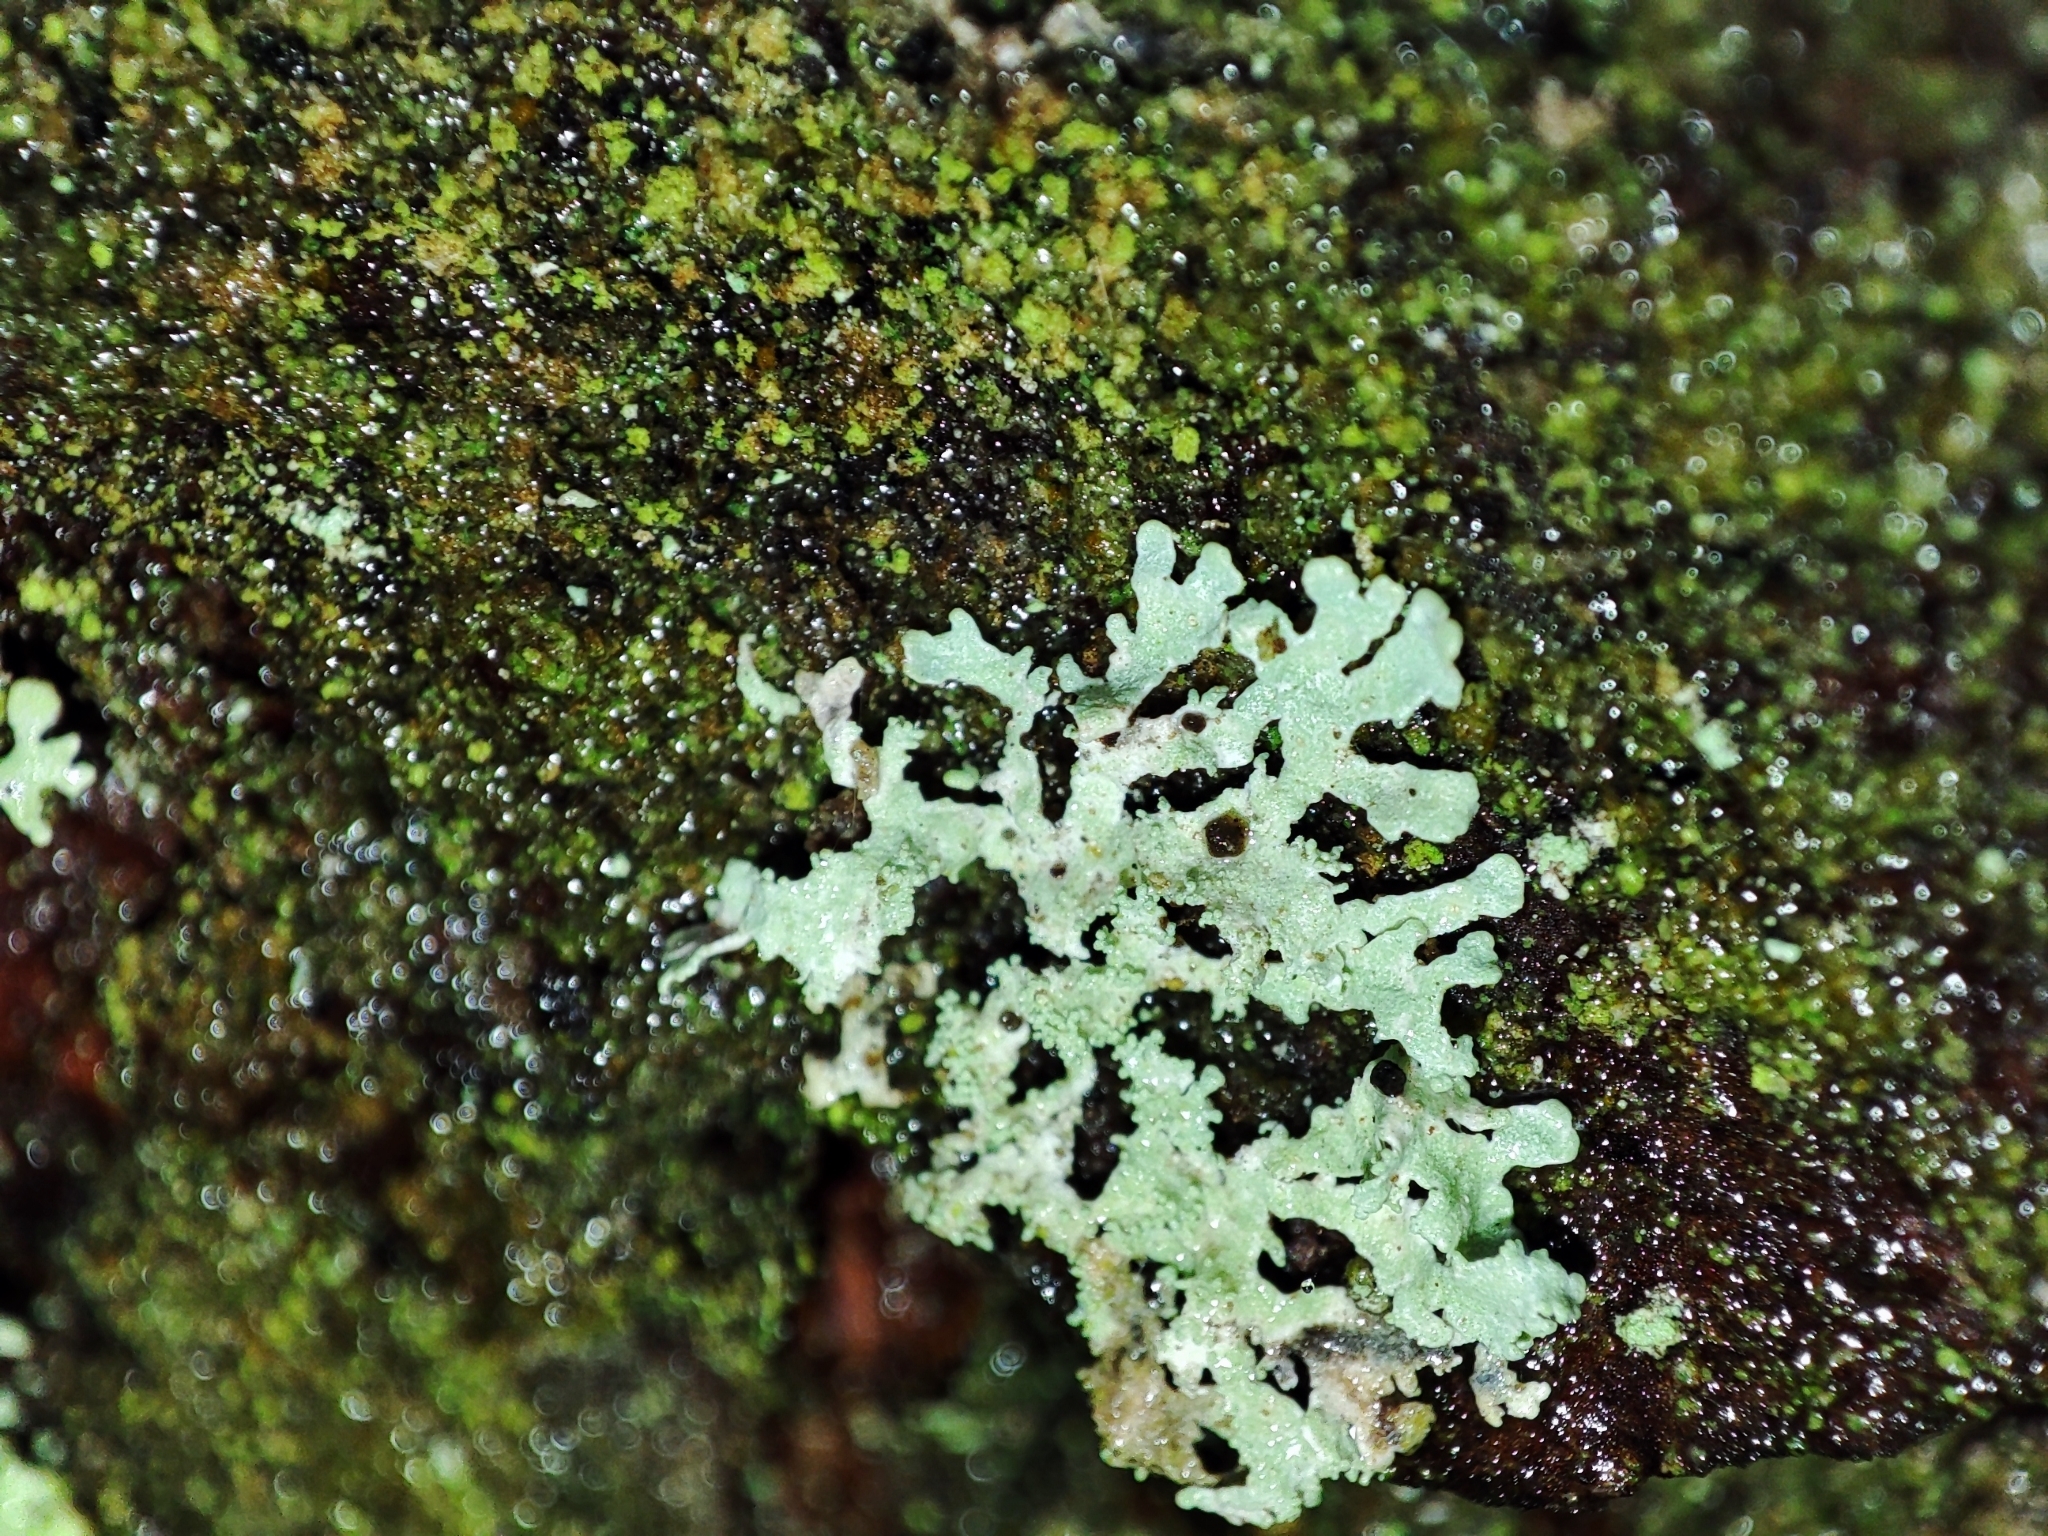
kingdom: Fungi
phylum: Ascomycota
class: Lecanoromycetes
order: Lecanorales
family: Parmeliaceae
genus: Imshaugia
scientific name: Imshaugia aleurites
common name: Salted starburst lichen
